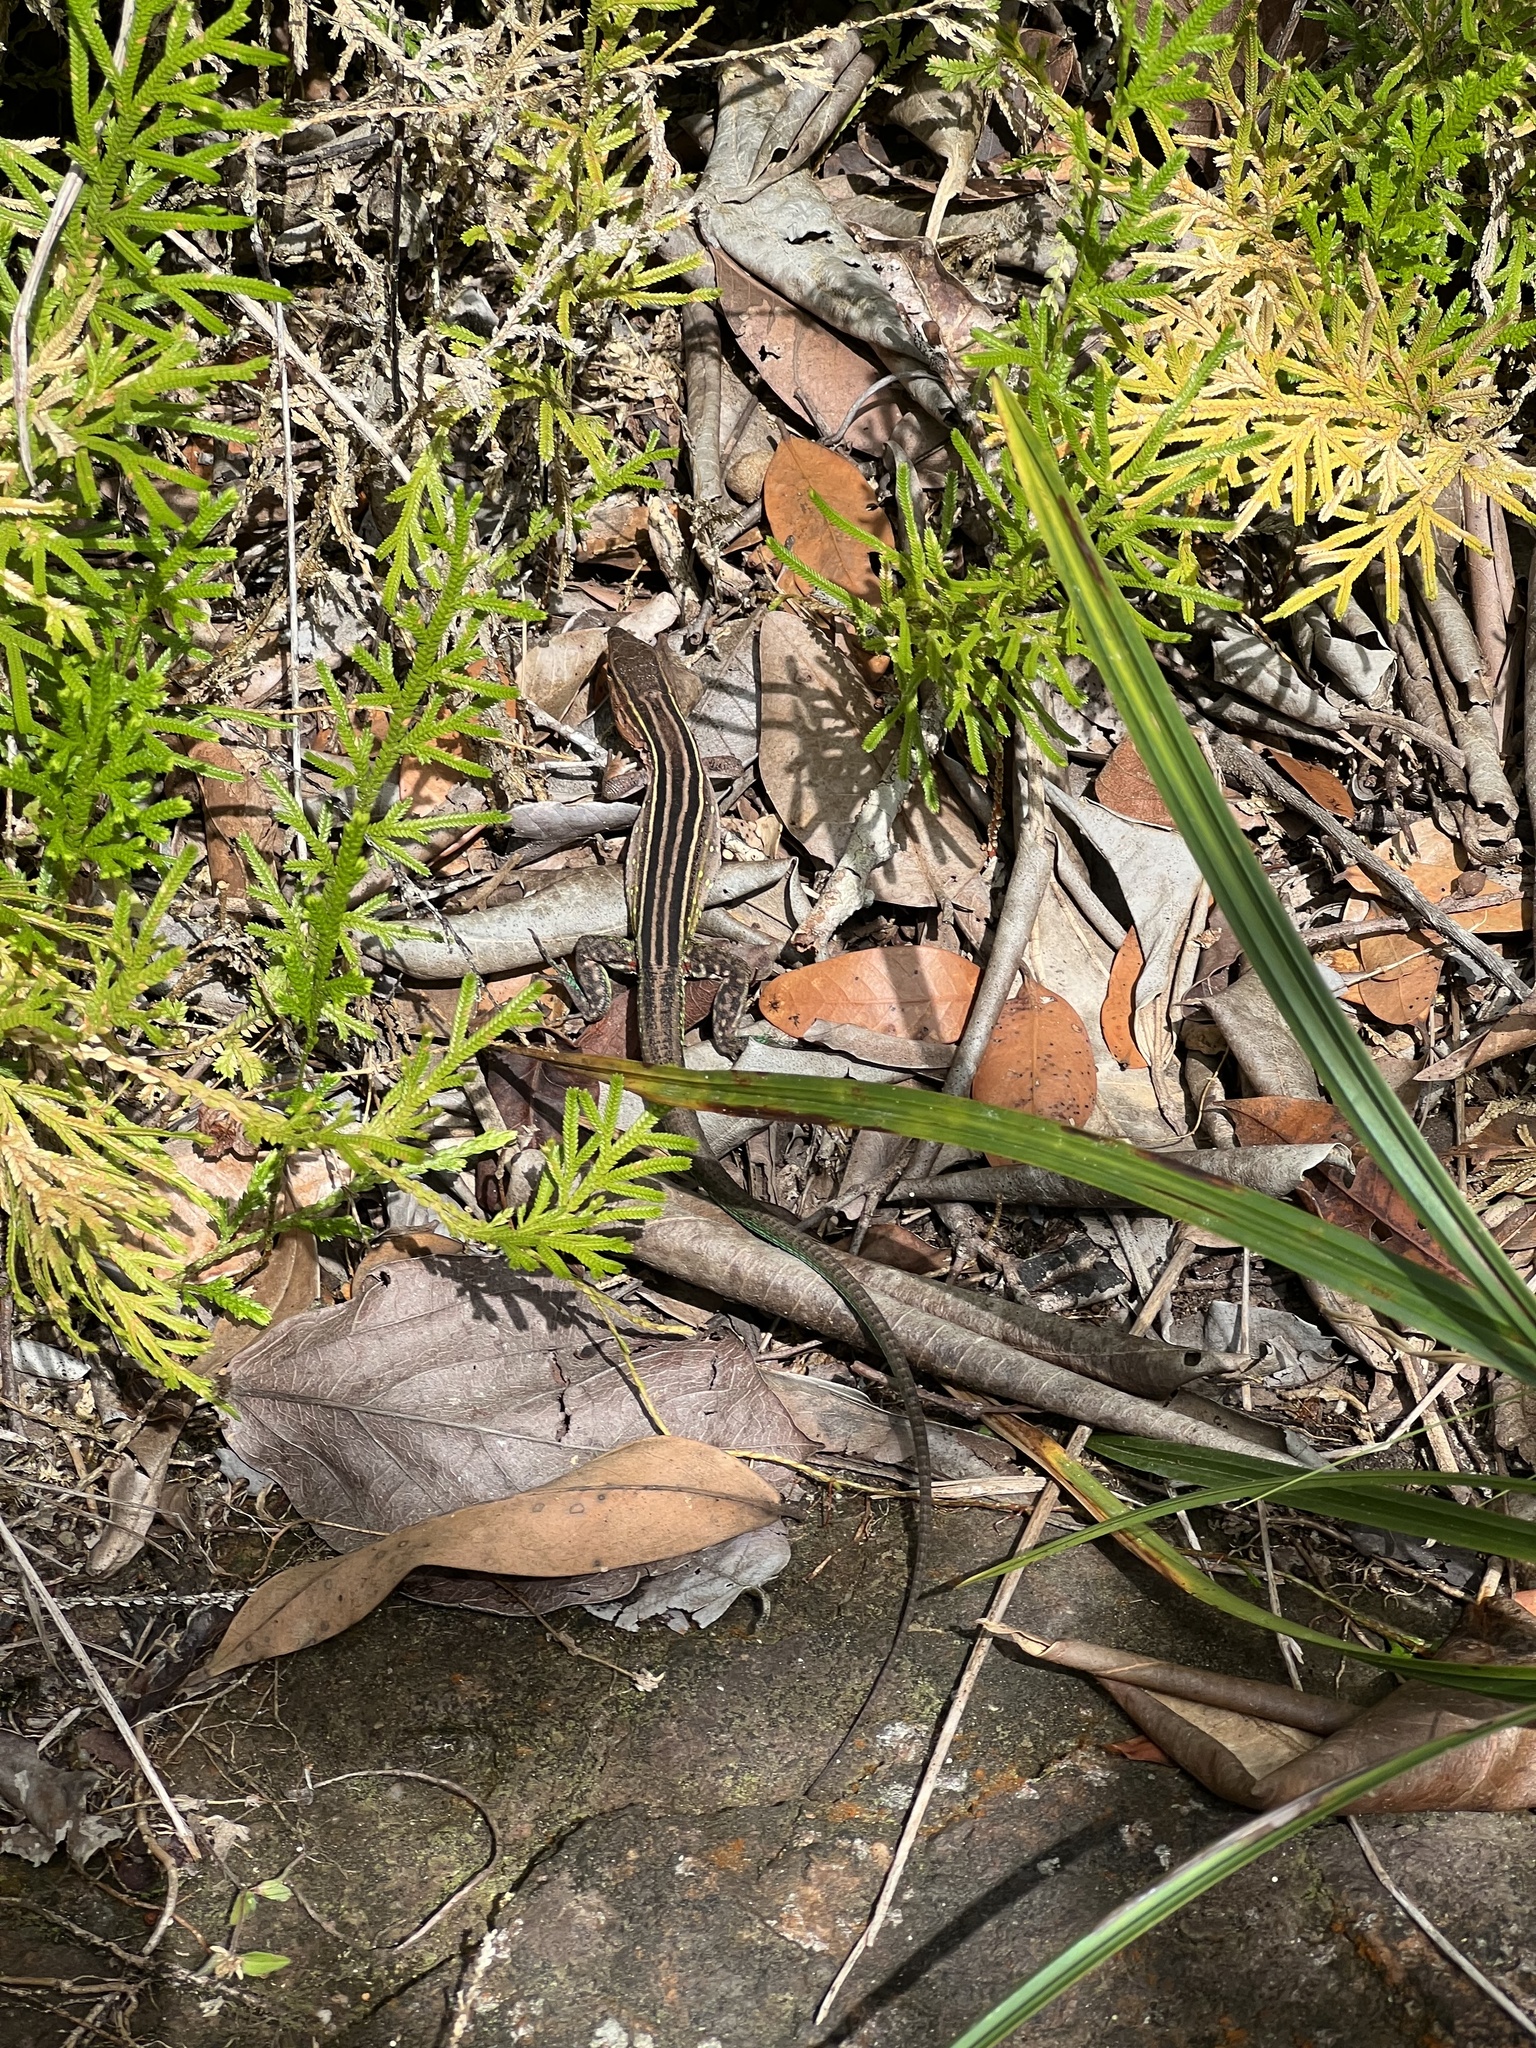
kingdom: Animalia
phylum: Chordata
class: Squamata
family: Teiidae
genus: Cnemidophorus
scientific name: Cnemidophorus gramivagus
